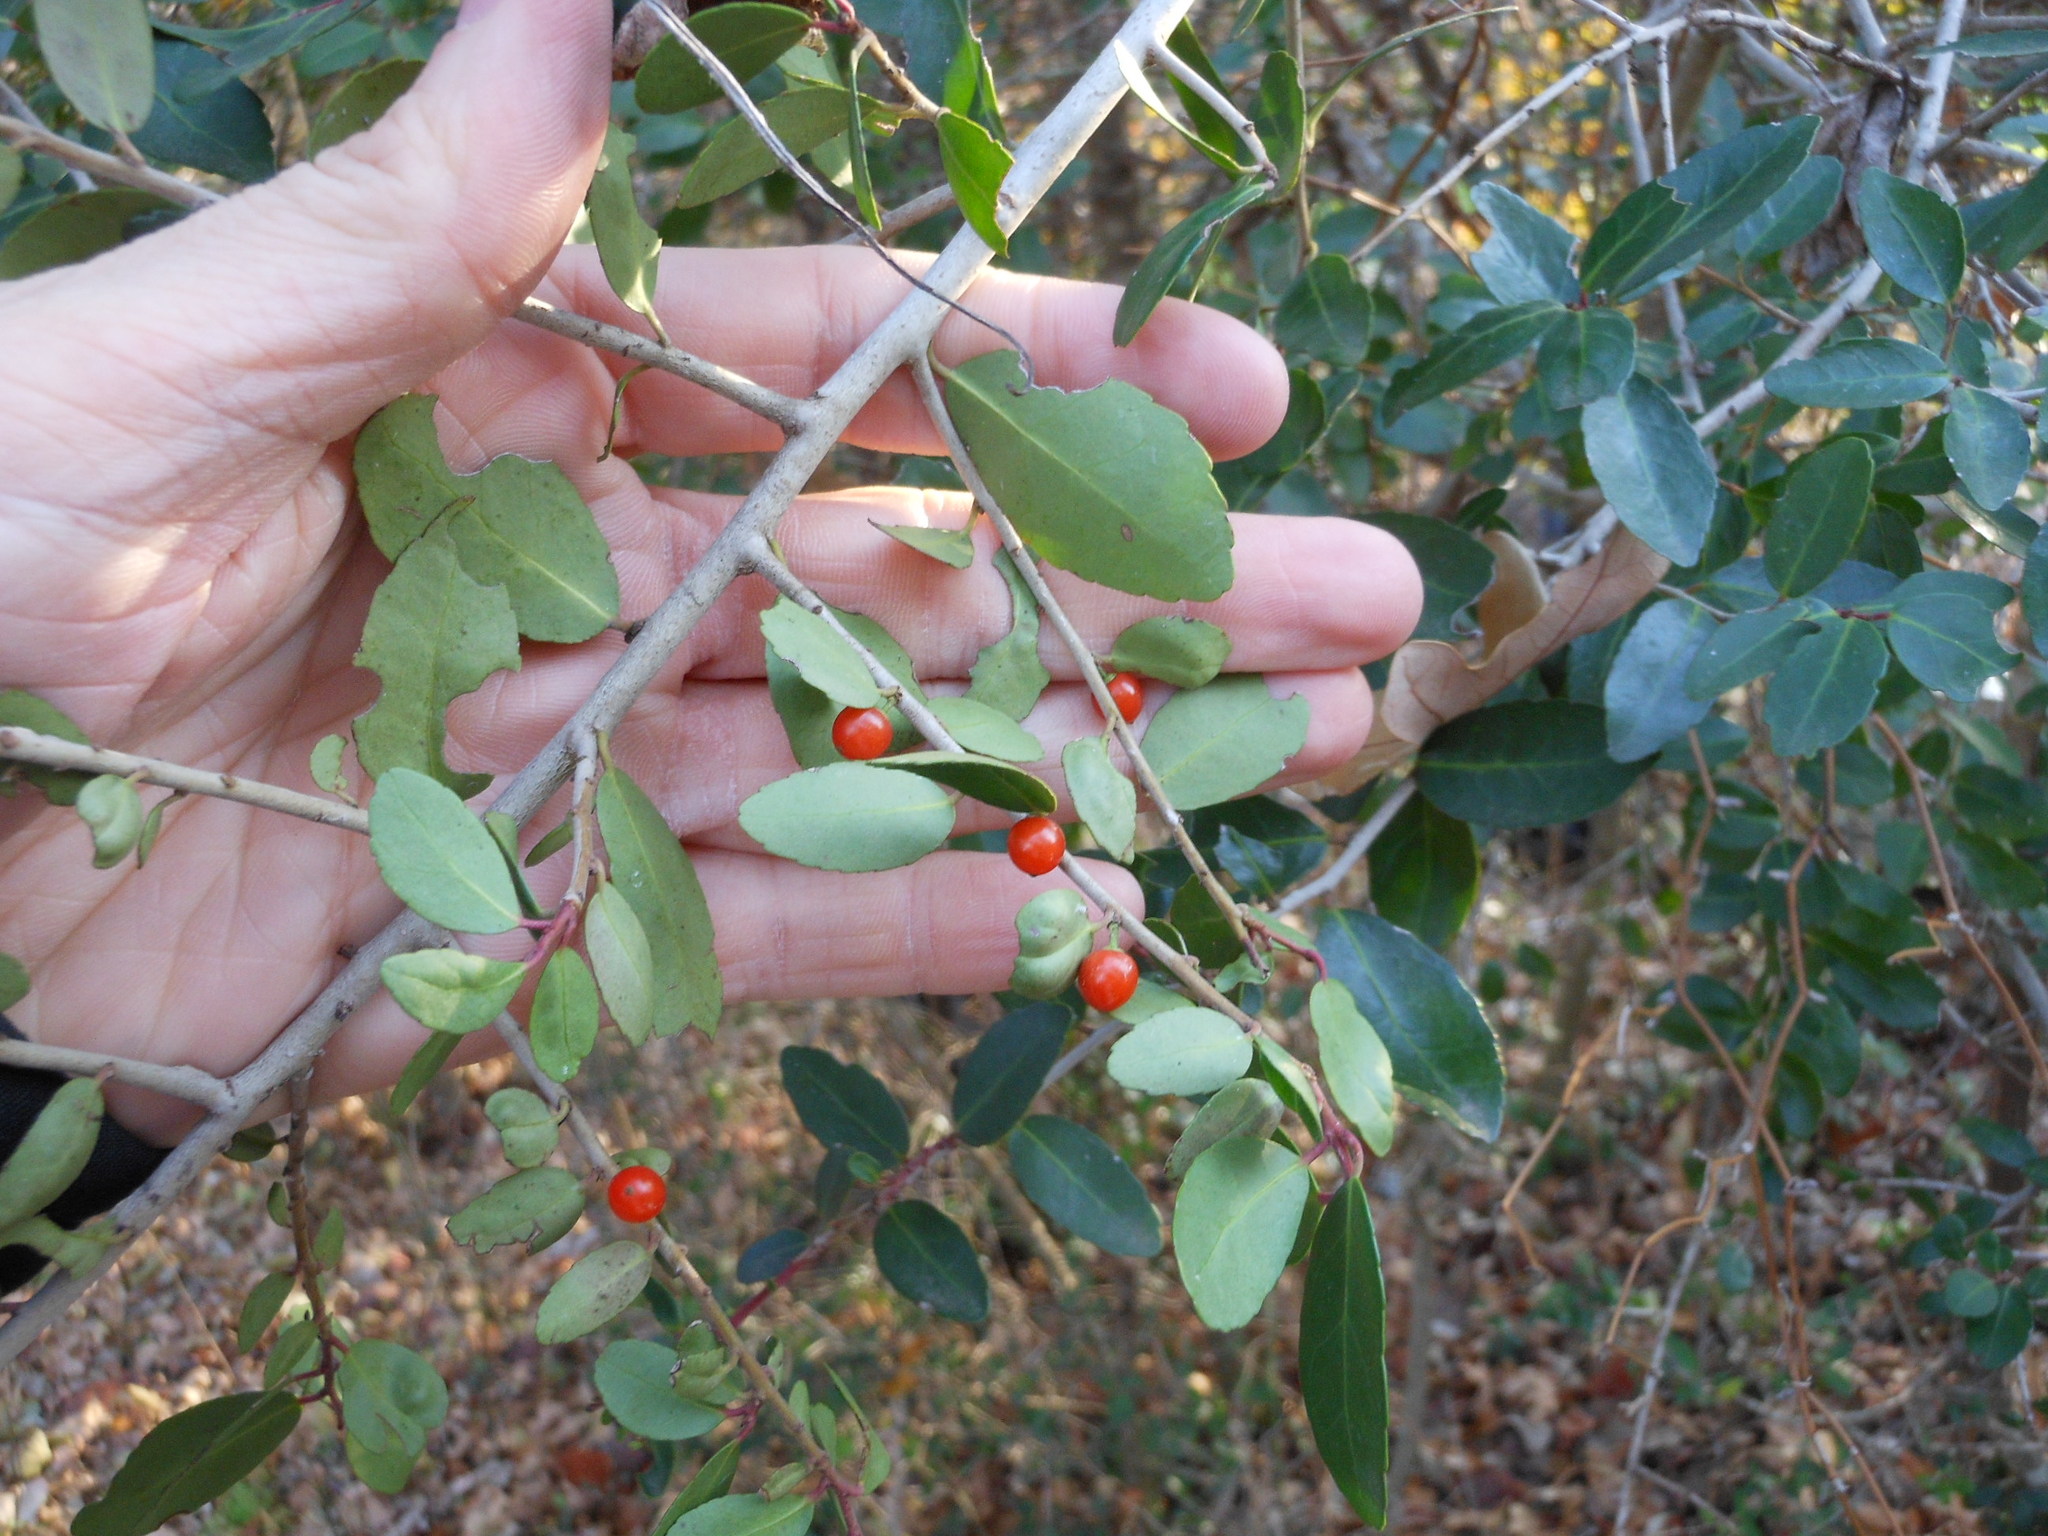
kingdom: Plantae
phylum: Tracheophyta
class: Magnoliopsida
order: Aquifoliales
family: Aquifoliaceae
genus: Ilex
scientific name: Ilex vomitoria
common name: Yaupon holly
